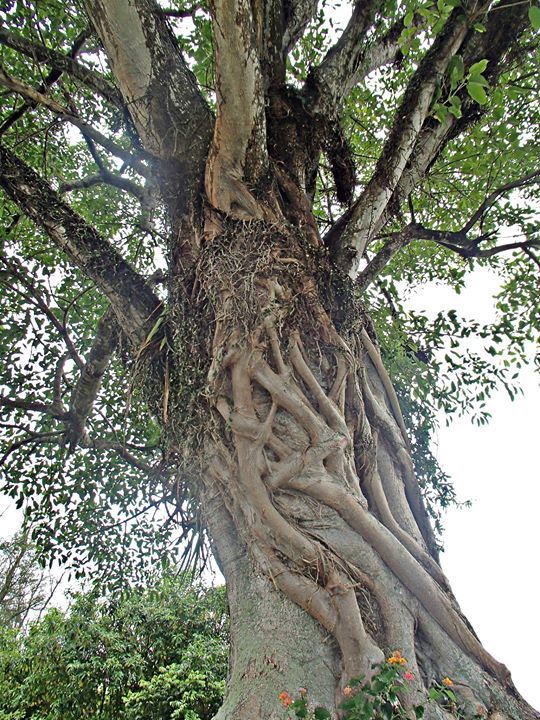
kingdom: Plantae
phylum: Tracheophyta
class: Magnoliopsida
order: Rosales
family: Moraceae
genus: Ficus
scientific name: Ficus luschnathiana
